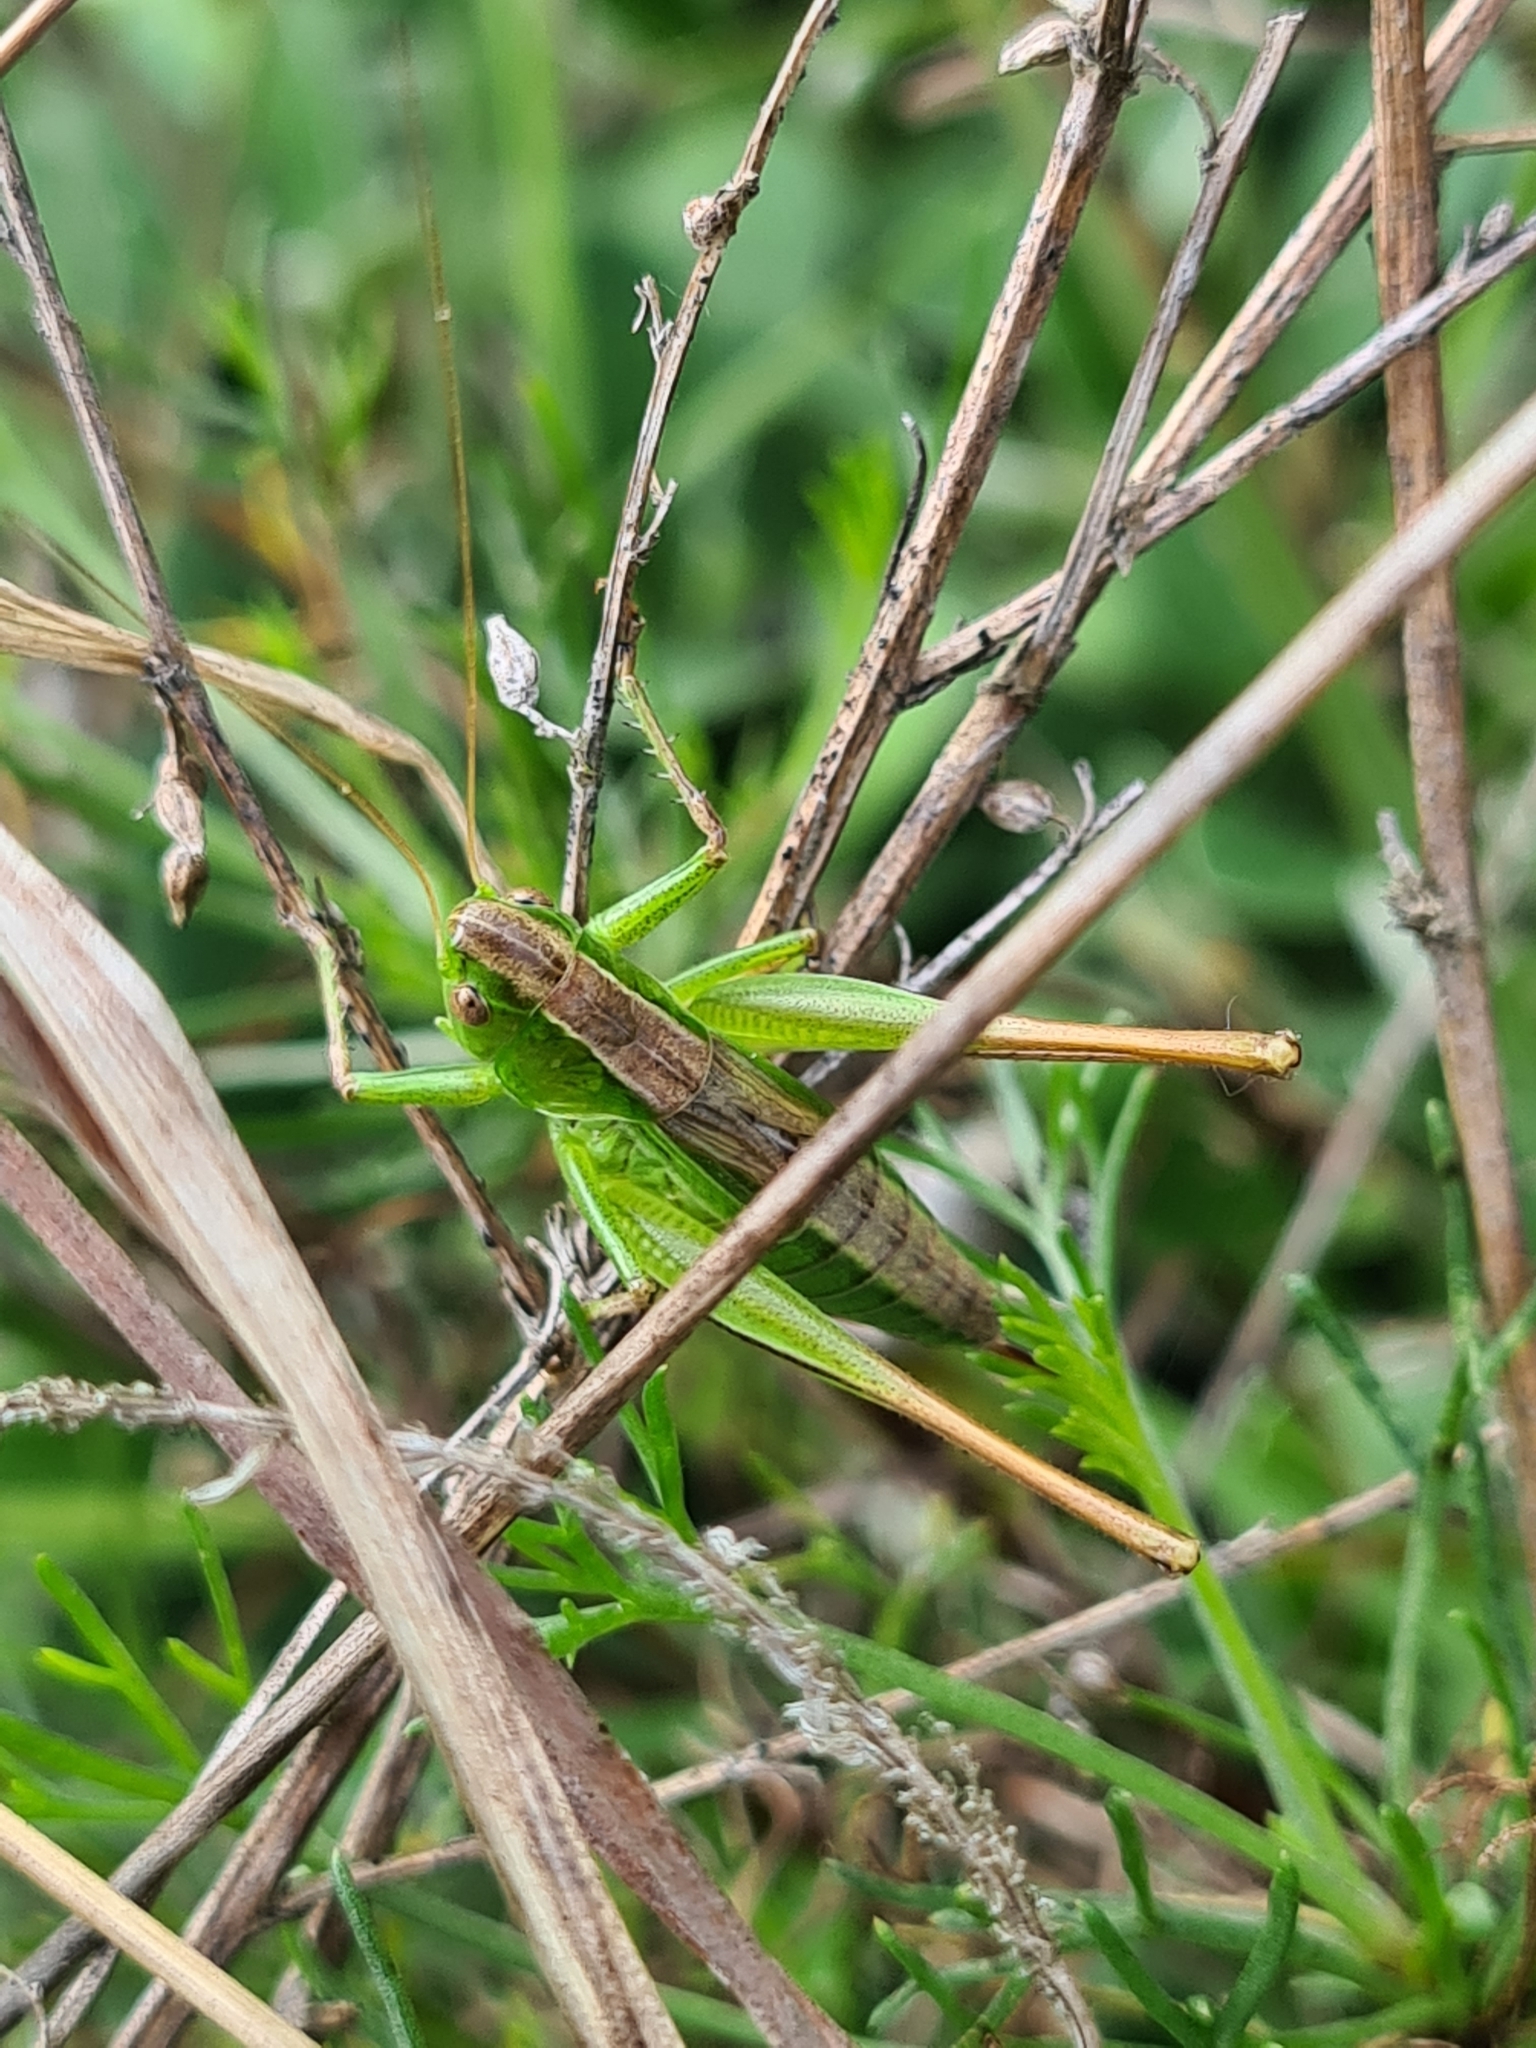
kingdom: Animalia
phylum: Arthropoda
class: Insecta
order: Orthoptera
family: Tettigoniidae
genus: Bicolorana
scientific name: Bicolorana bicolor
